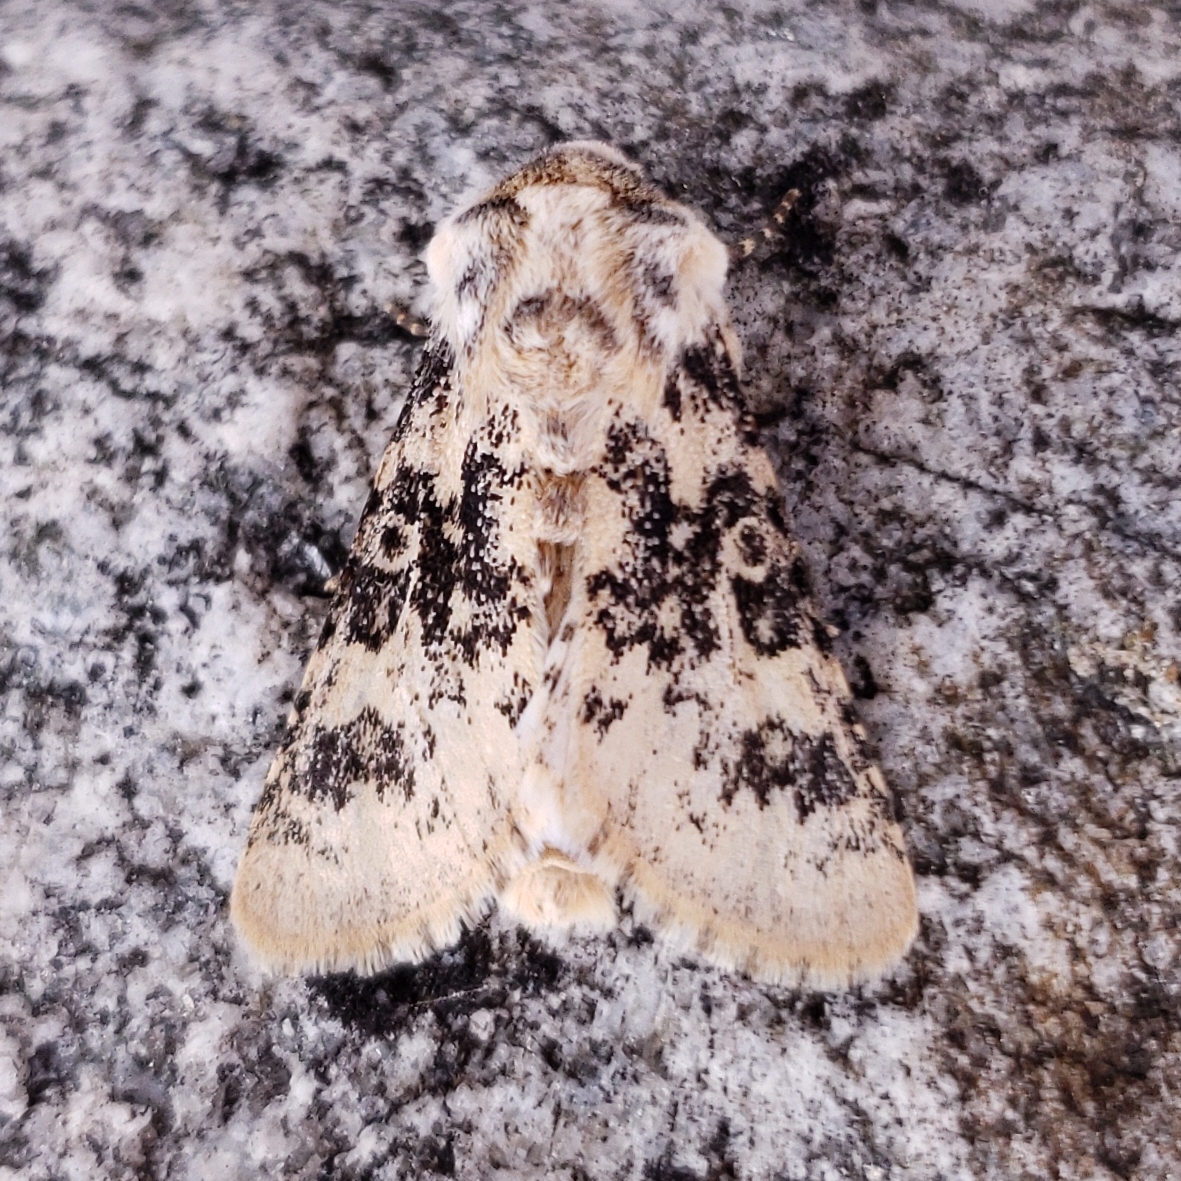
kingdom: Animalia
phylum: Arthropoda
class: Insecta
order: Lepidoptera
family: Noctuidae
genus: Unciella
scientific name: Unciella primula
